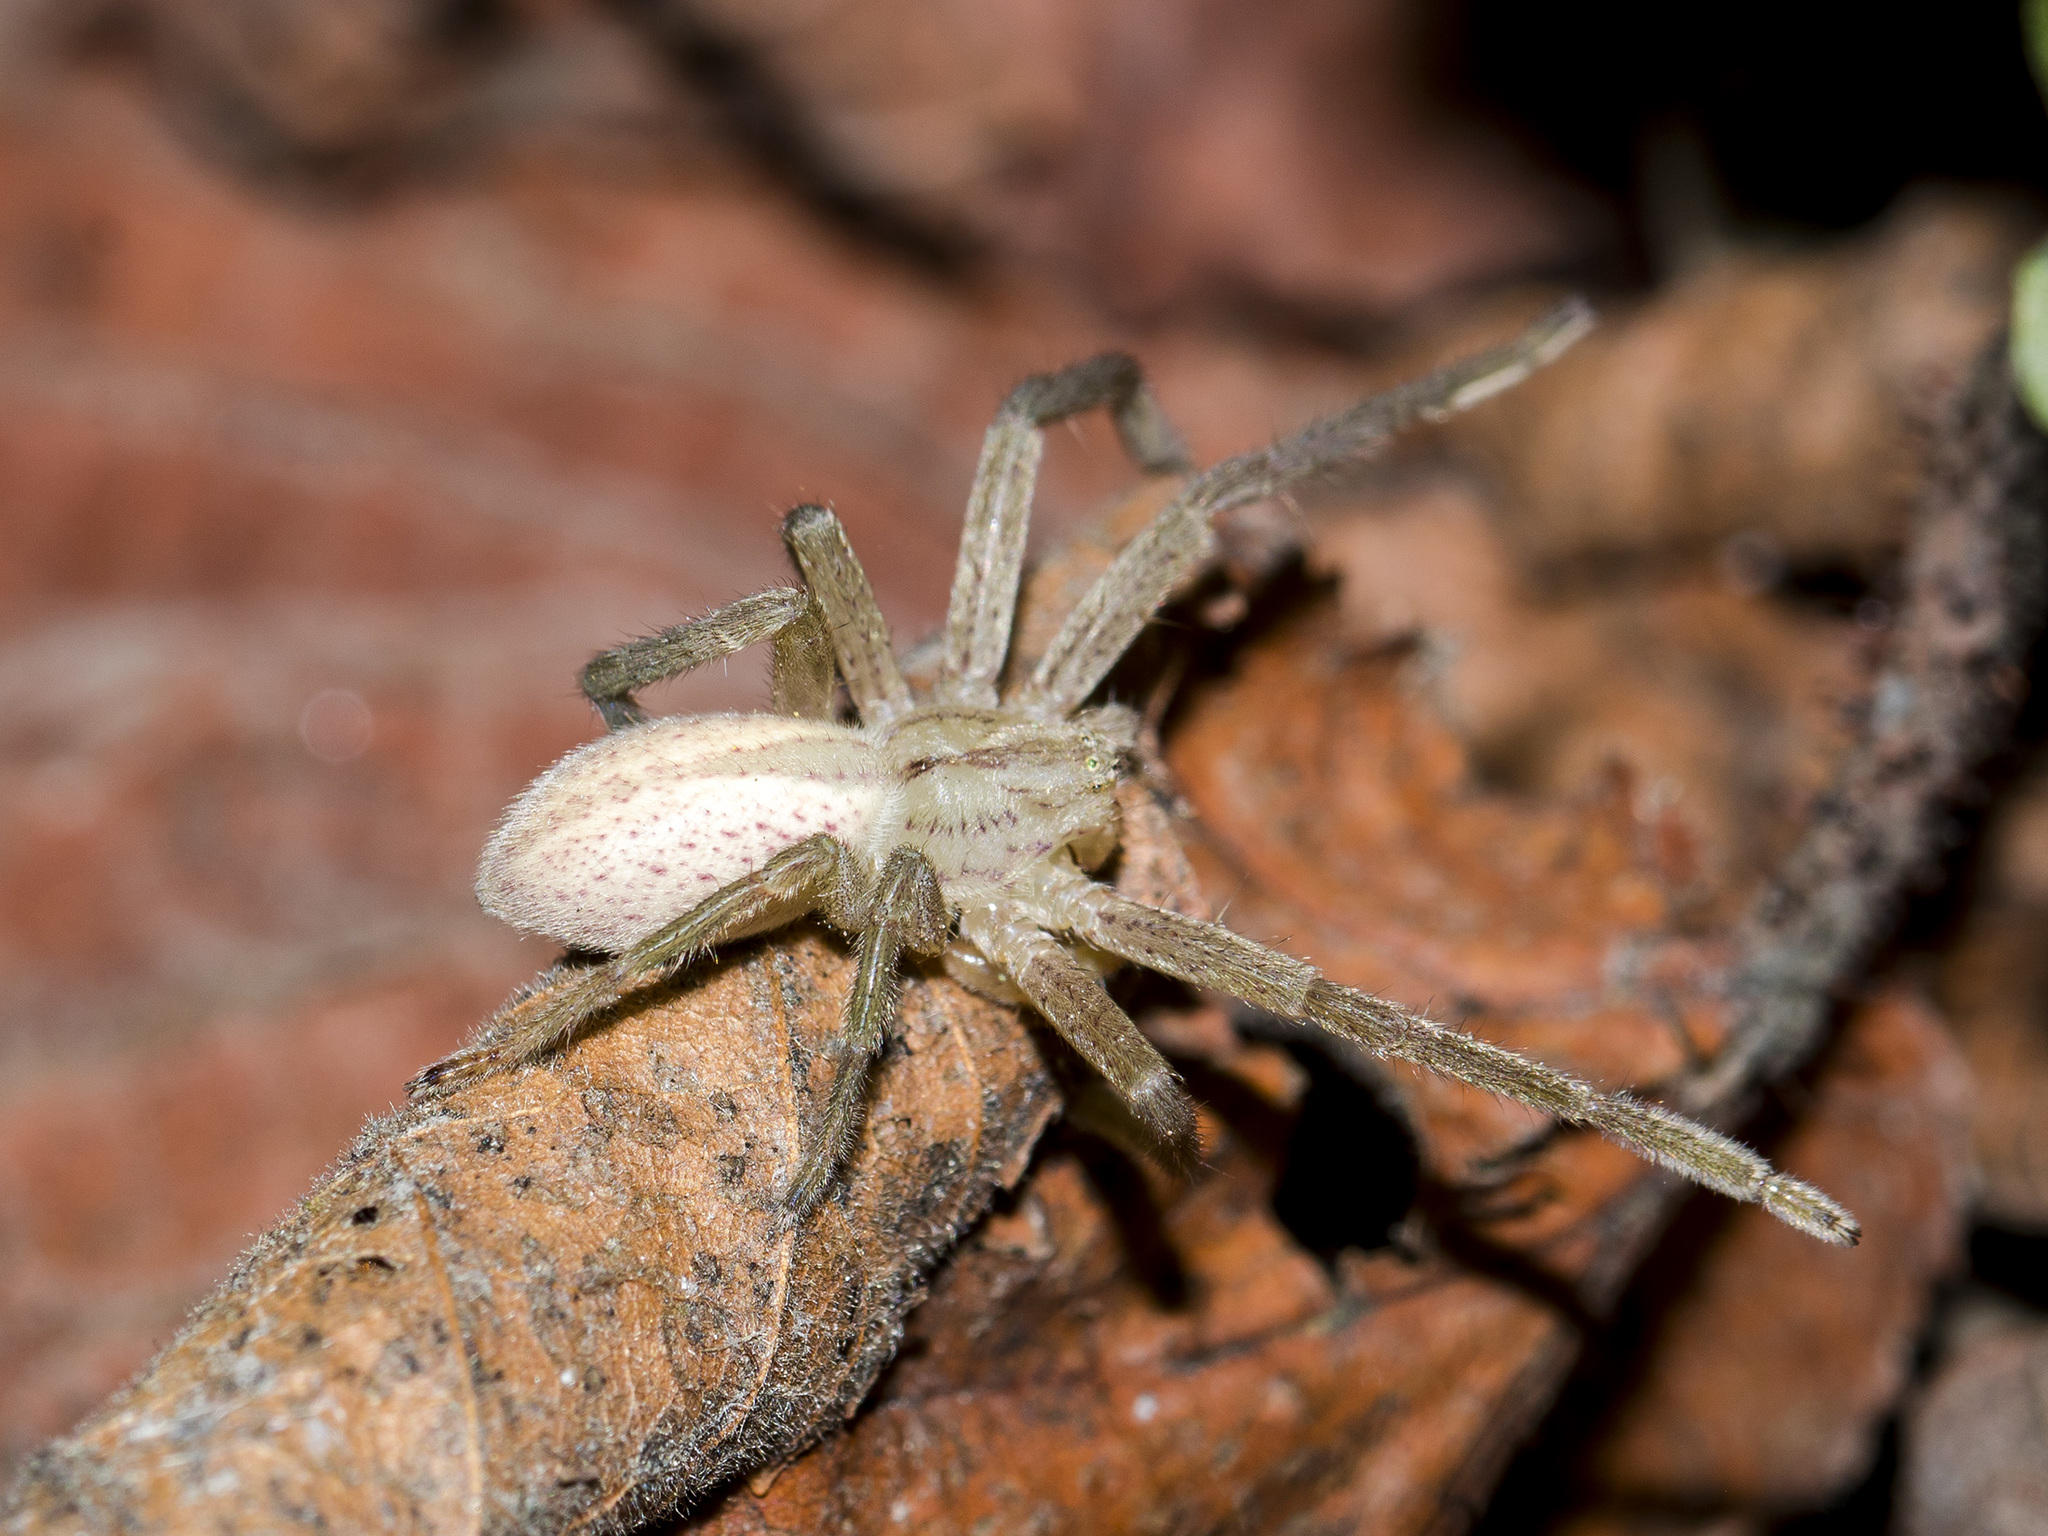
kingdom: Animalia
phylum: Arthropoda
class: Arachnida
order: Araneae
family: Sparassidae
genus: Micrommata
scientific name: Micrommata virescens
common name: Green spider
